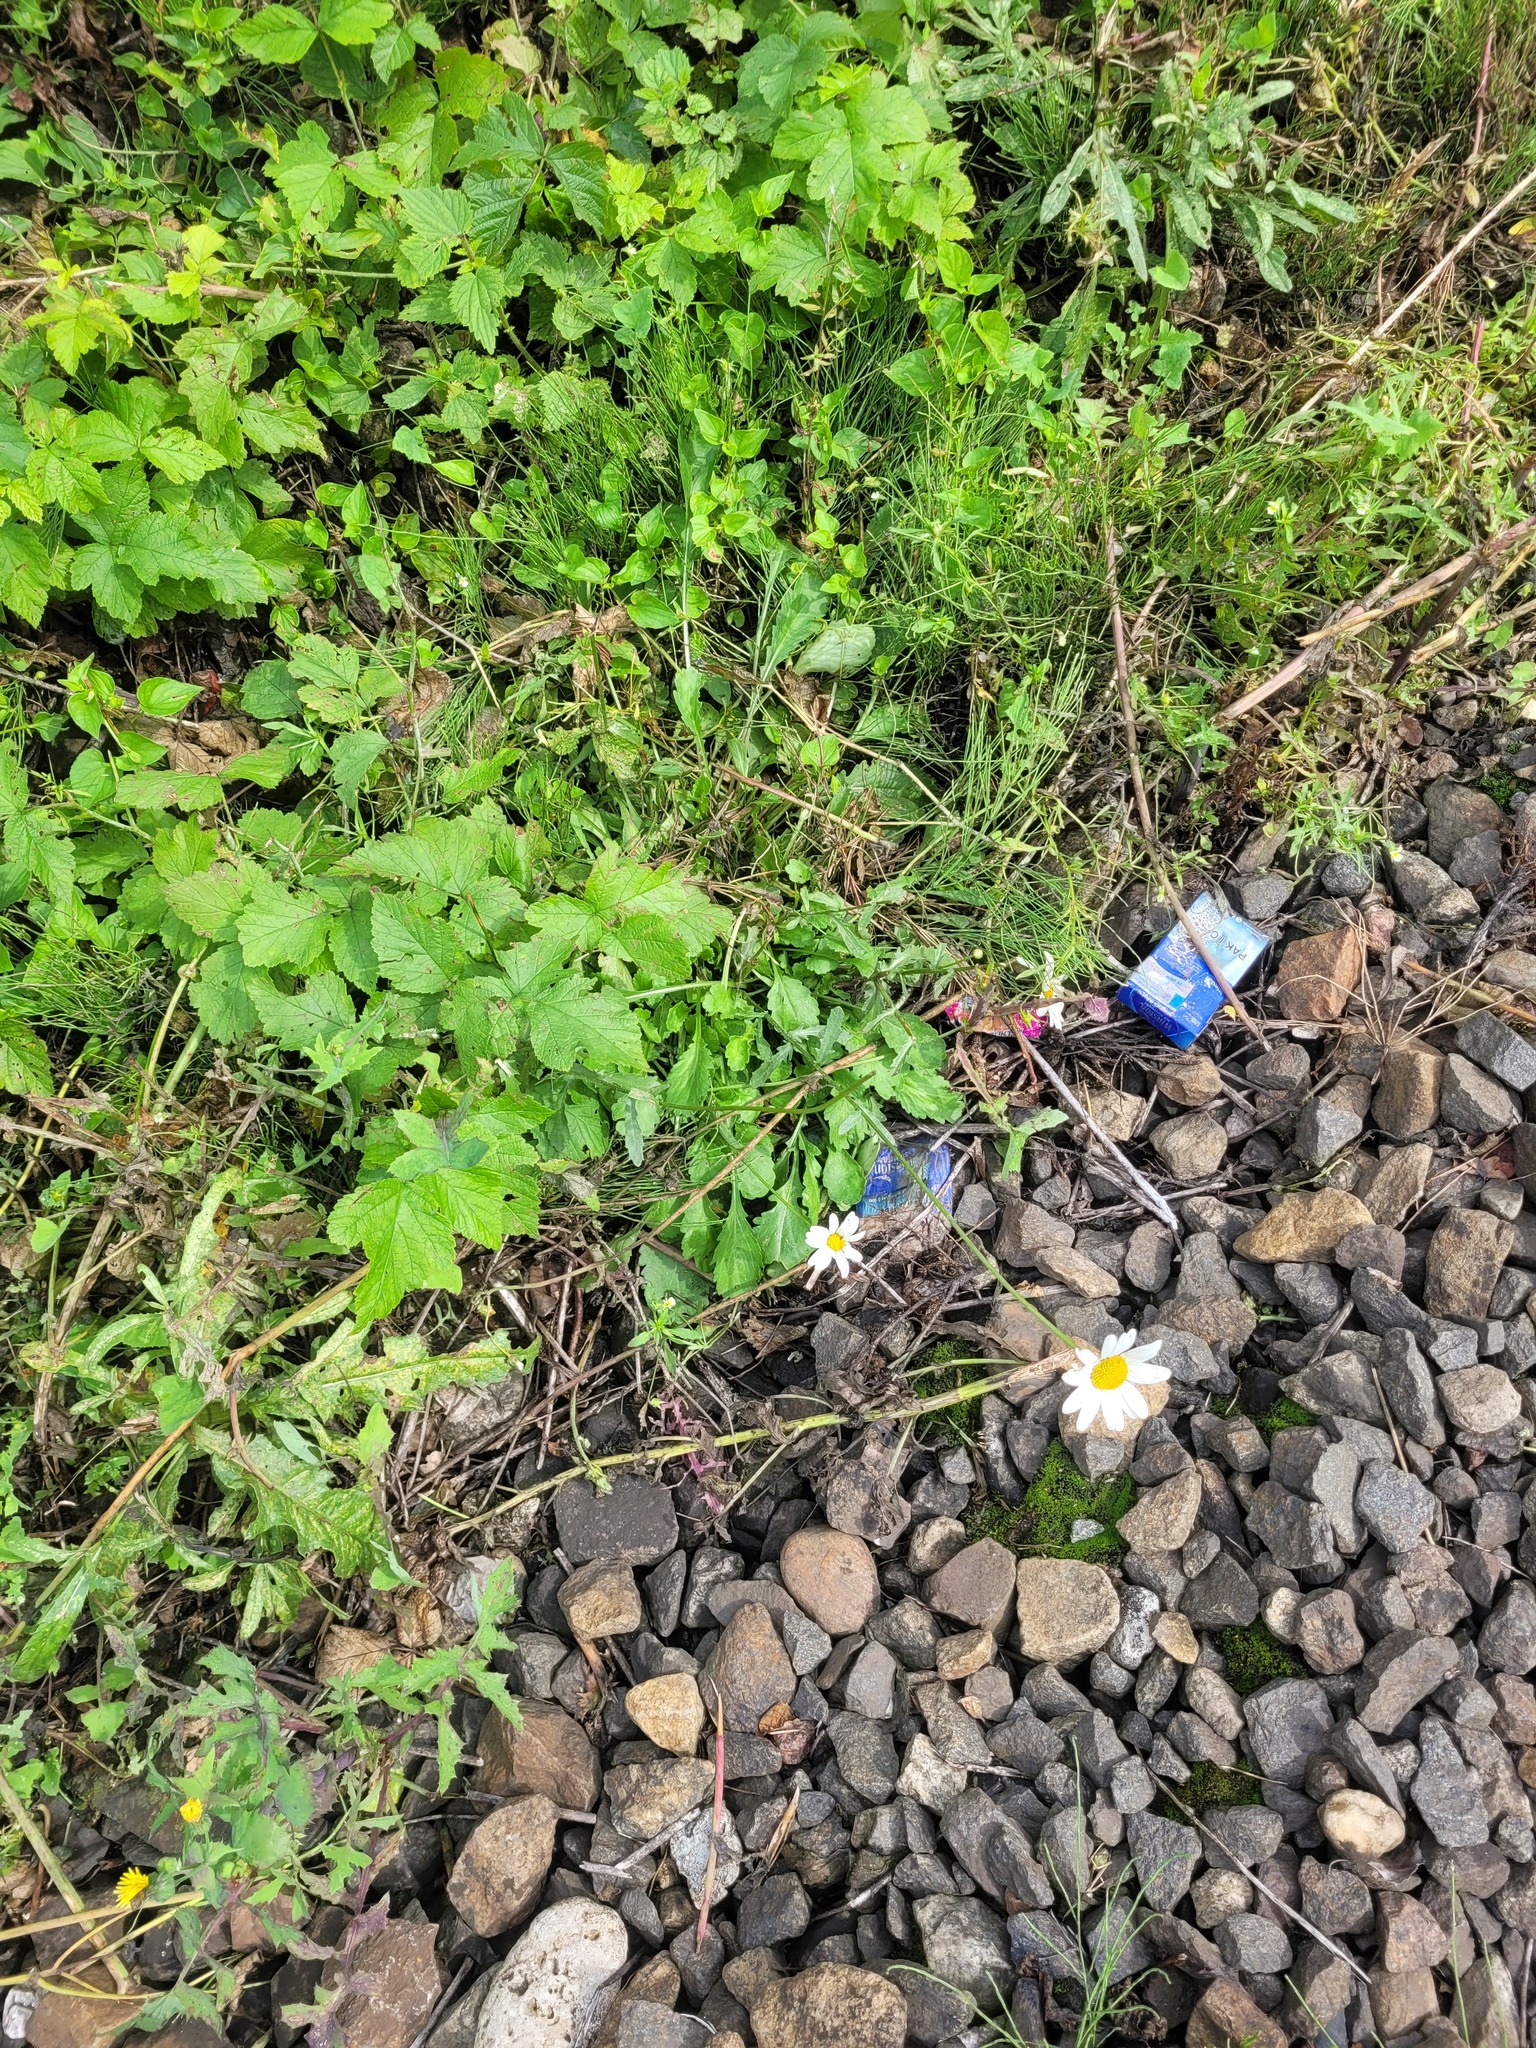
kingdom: Plantae
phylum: Tracheophyta
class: Magnoliopsida
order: Asterales
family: Asteraceae
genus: Leucanthemum
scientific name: Leucanthemum vulgare
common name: Oxeye daisy
